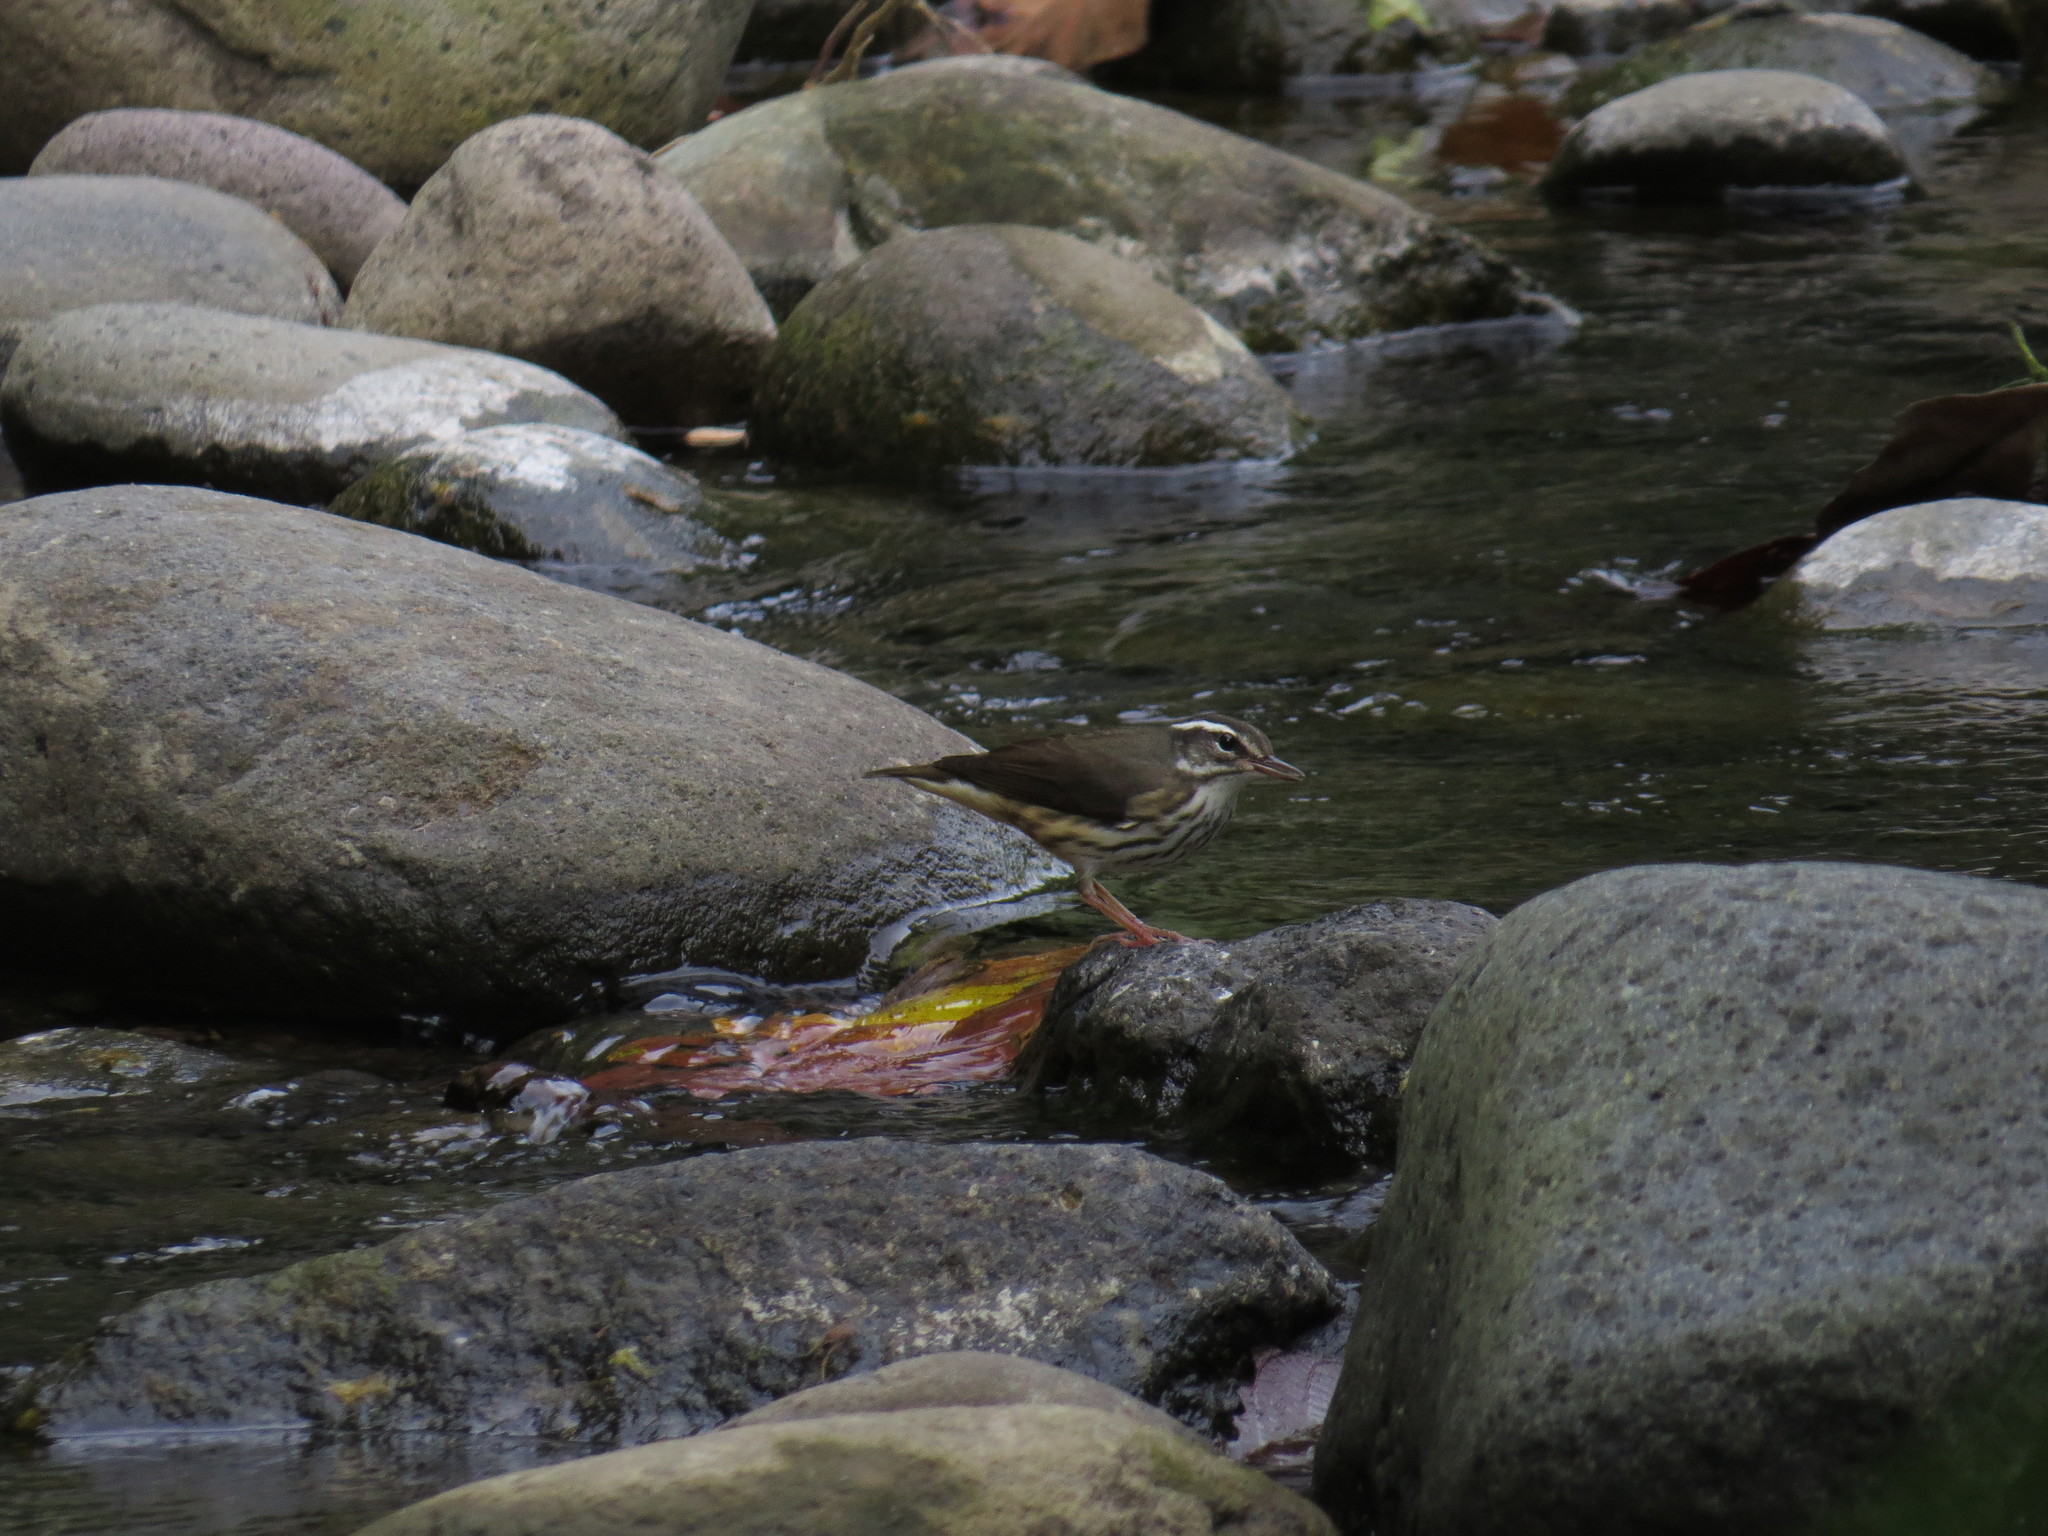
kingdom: Animalia
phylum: Chordata
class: Aves
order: Passeriformes
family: Parulidae
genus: Parkesia
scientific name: Parkesia motacilla
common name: Louisiana waterthrush
